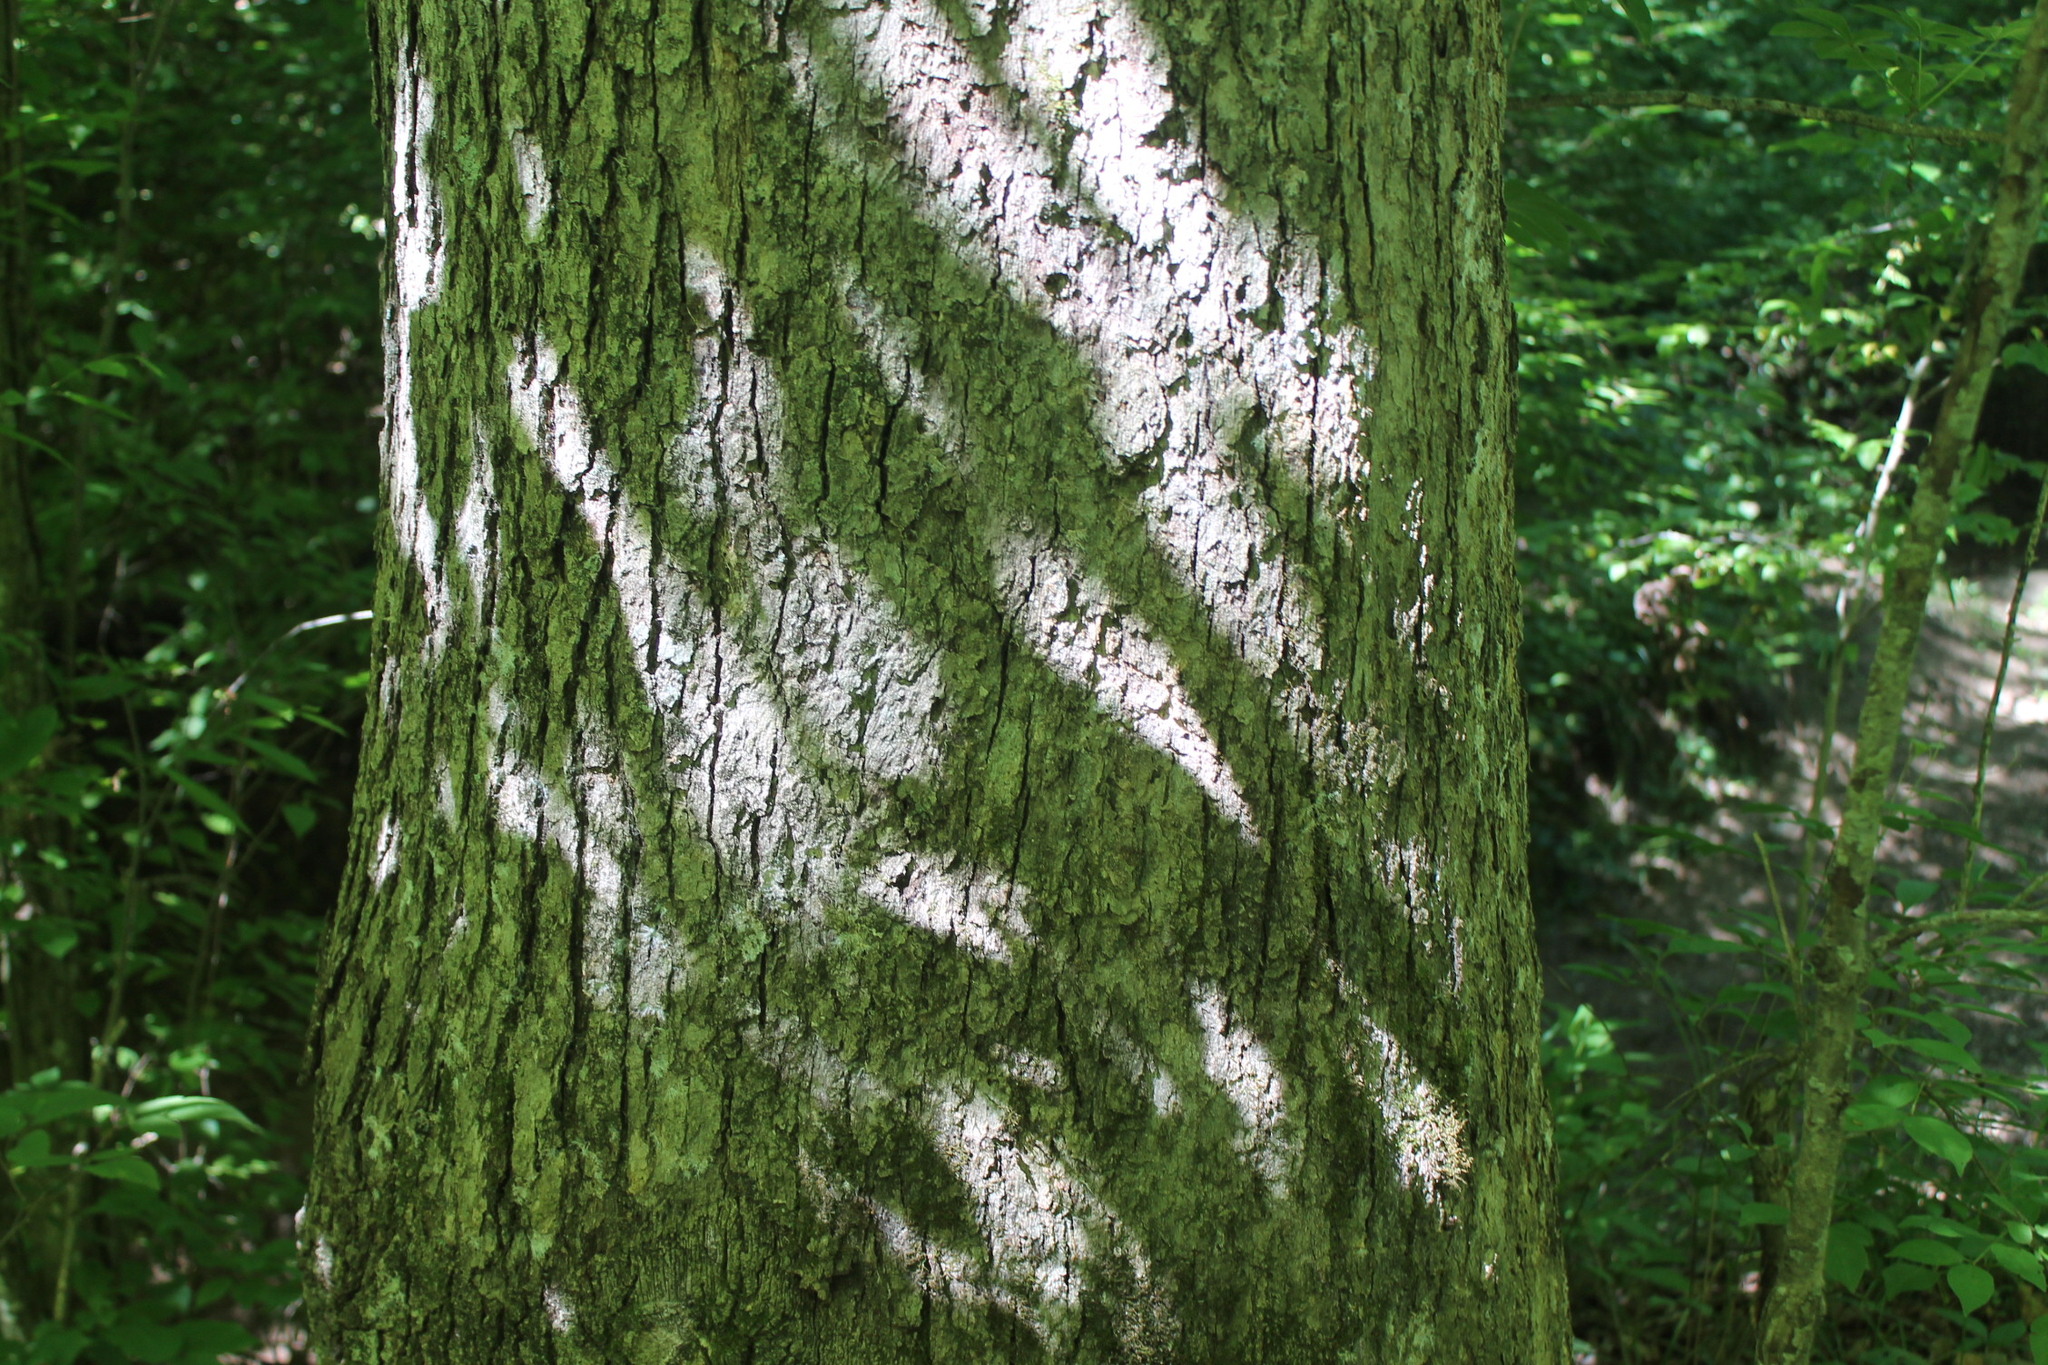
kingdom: Plantae
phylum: Tracheophyta
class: Magnoliopsida
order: Fagales
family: Fagaceae
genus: Quercus
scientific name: Quercus alba
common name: White oak
